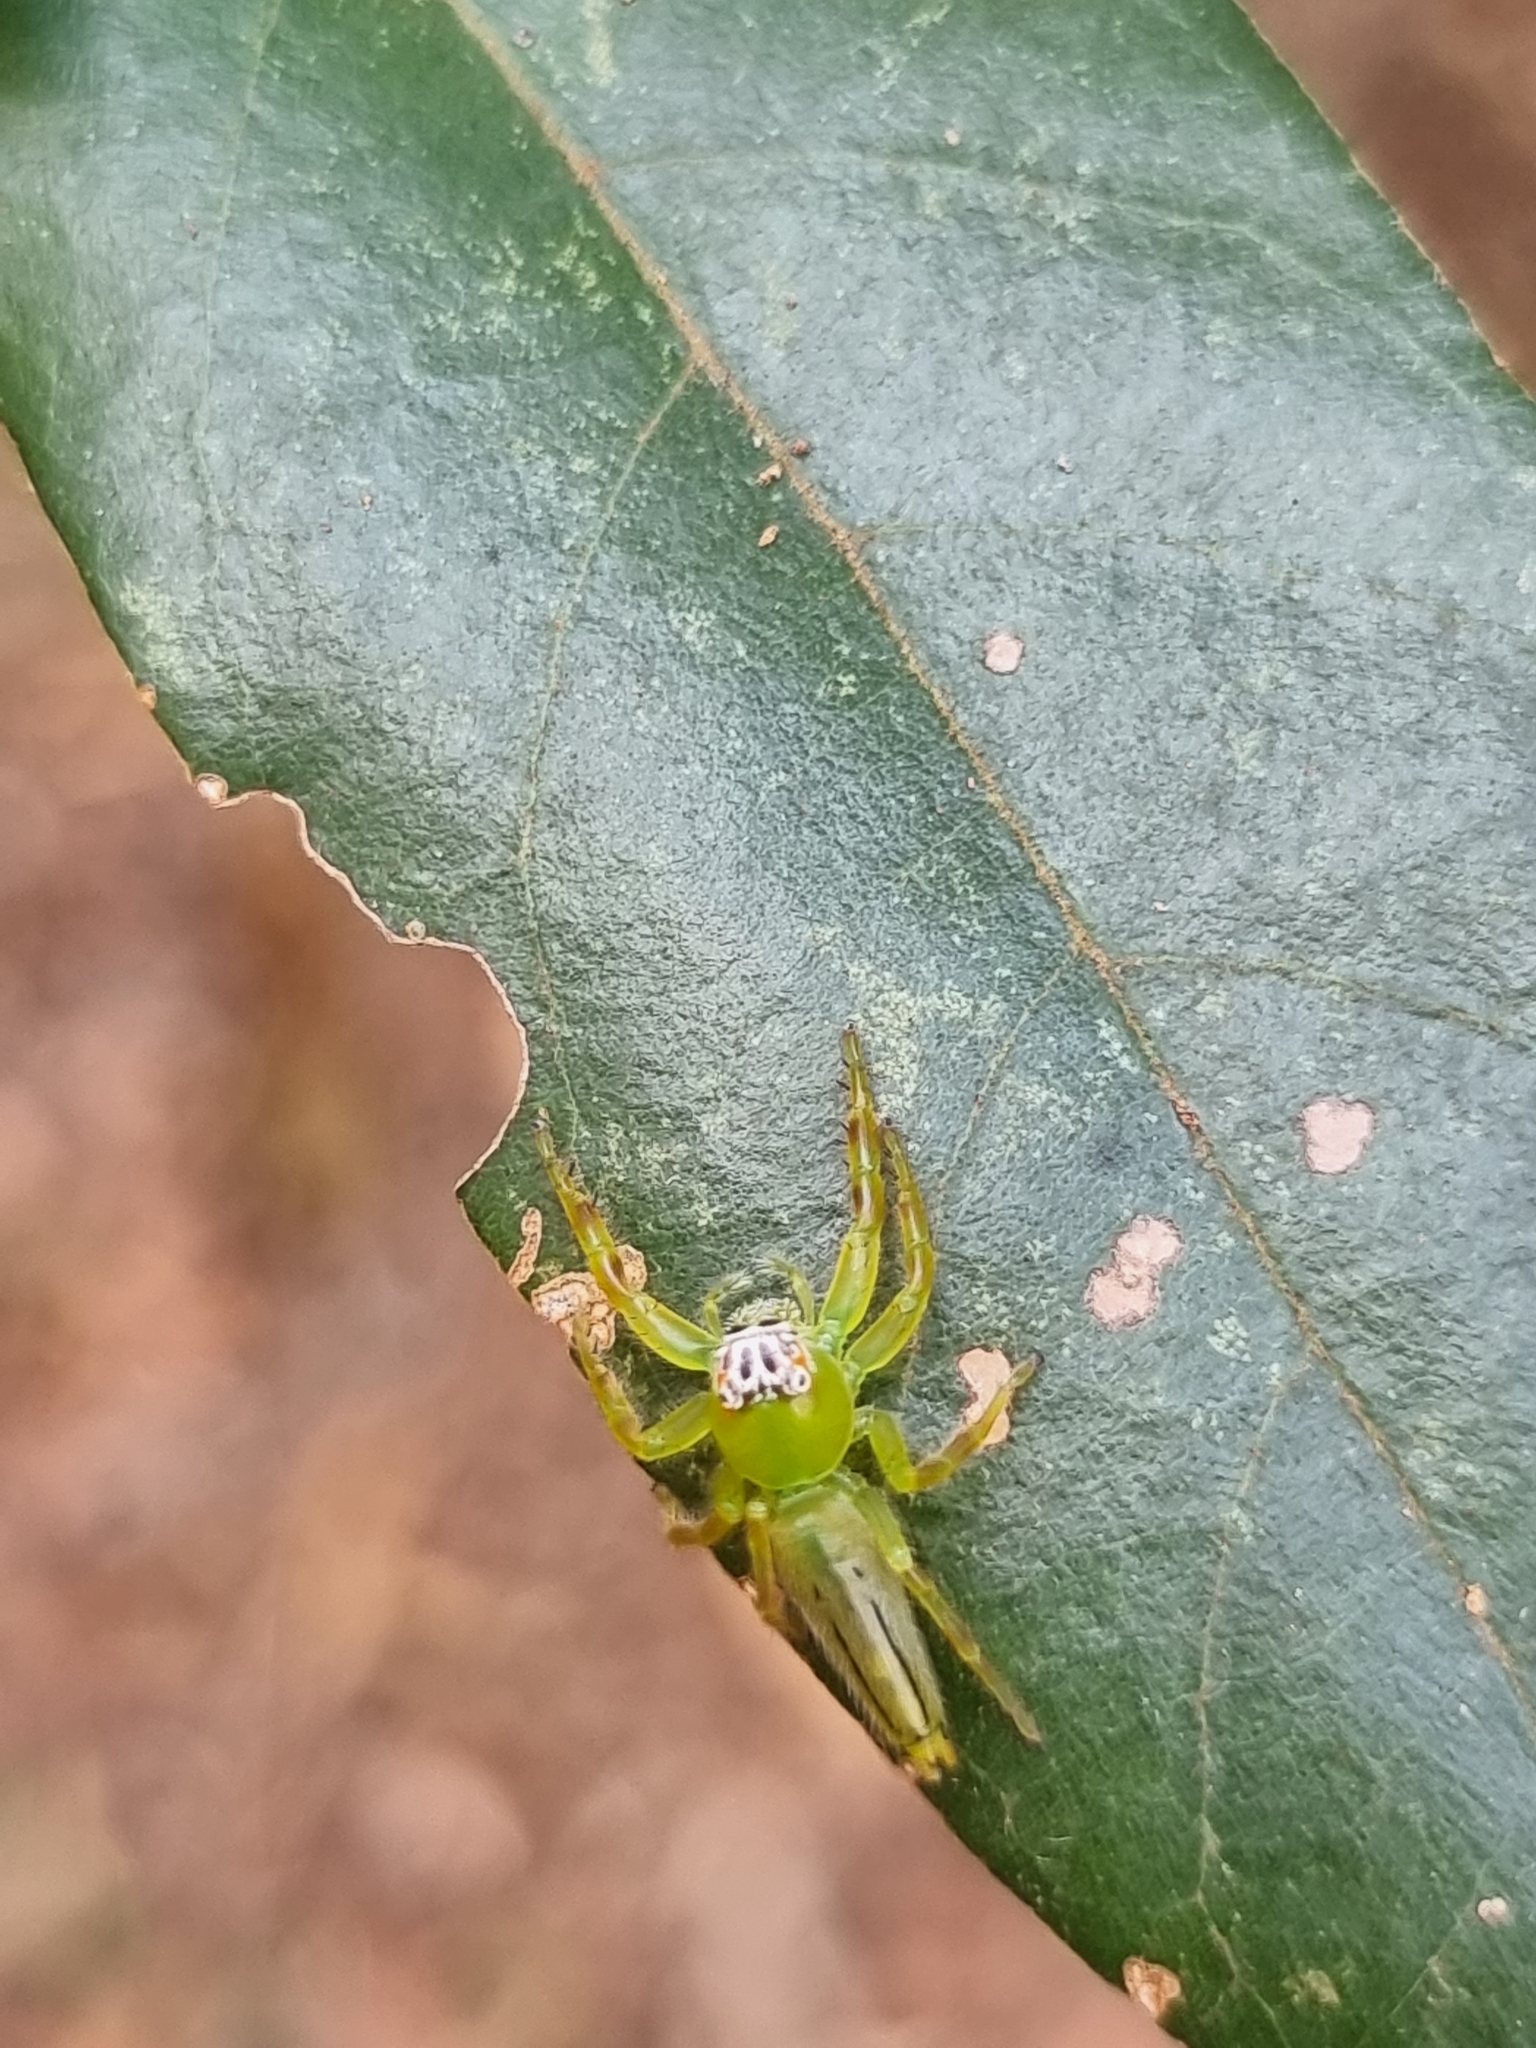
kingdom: Animalia
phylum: Arthropoda
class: Arachnida
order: Araneae
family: Salticidae
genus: Mopsus
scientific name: Mopsus mormon
